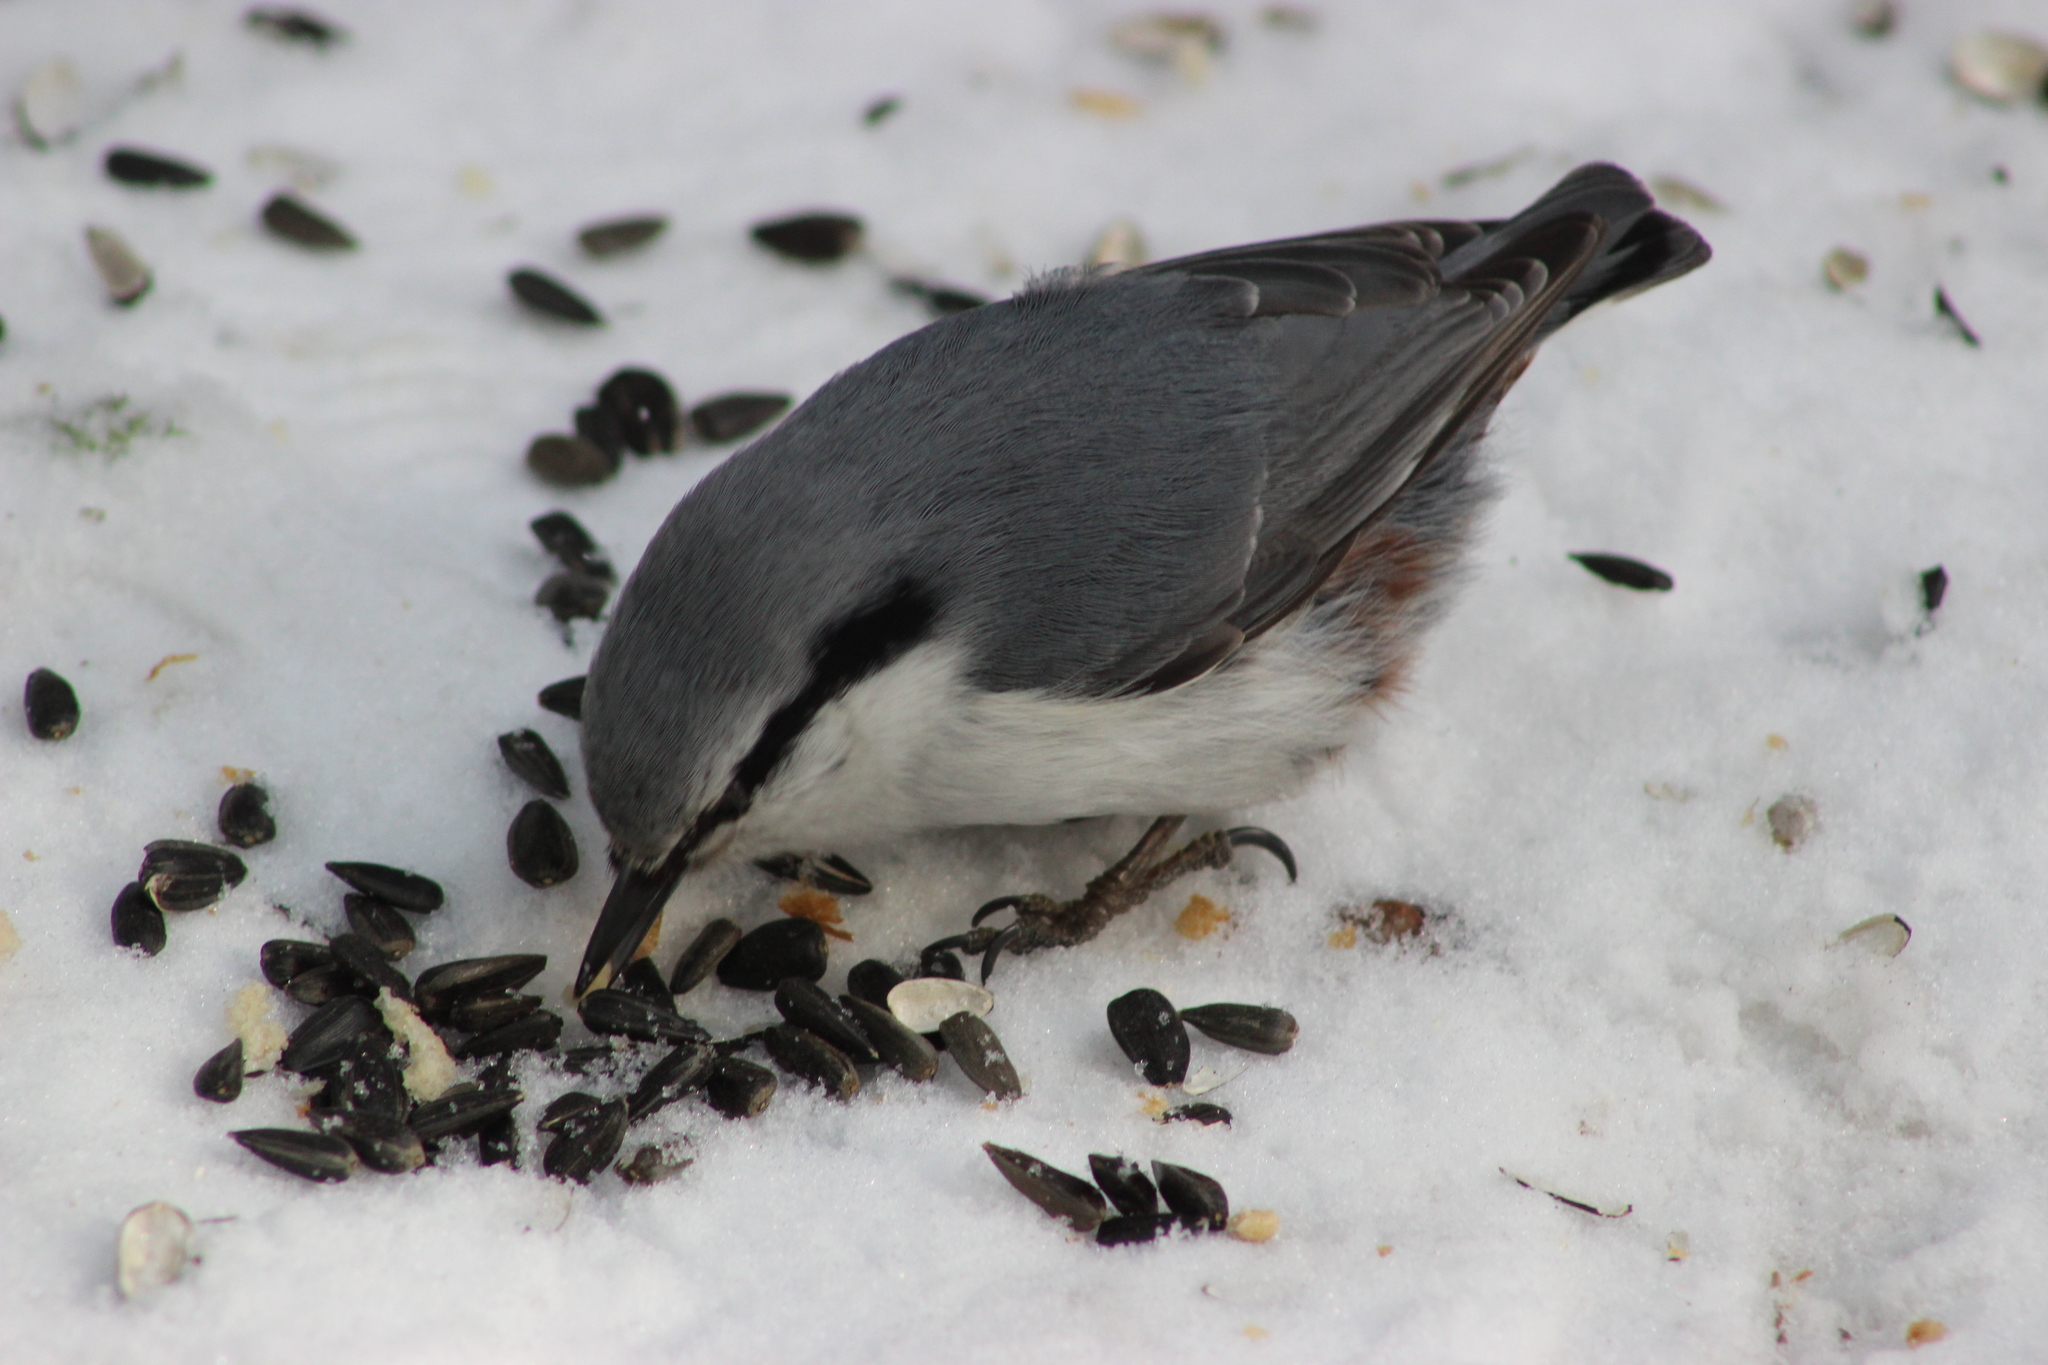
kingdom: Animalia
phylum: Chordata
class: Aves
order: Passeriformes
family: Sittidae
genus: Sitta
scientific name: Sitta europaea
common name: Eurasian nuthatch
